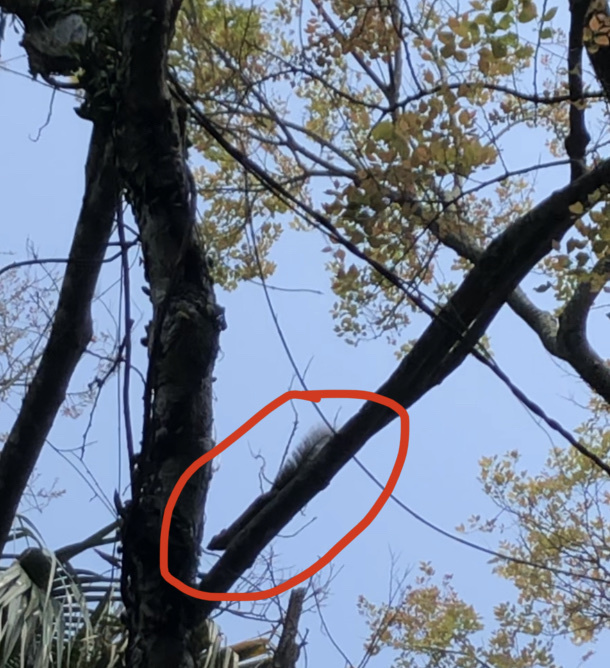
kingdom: Animalia
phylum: Chordata
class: Mammalia
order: Rodentia
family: Sciuridae
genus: Callosciurus
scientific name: Callosciurus erythraeus
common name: Pallas's squirrel
